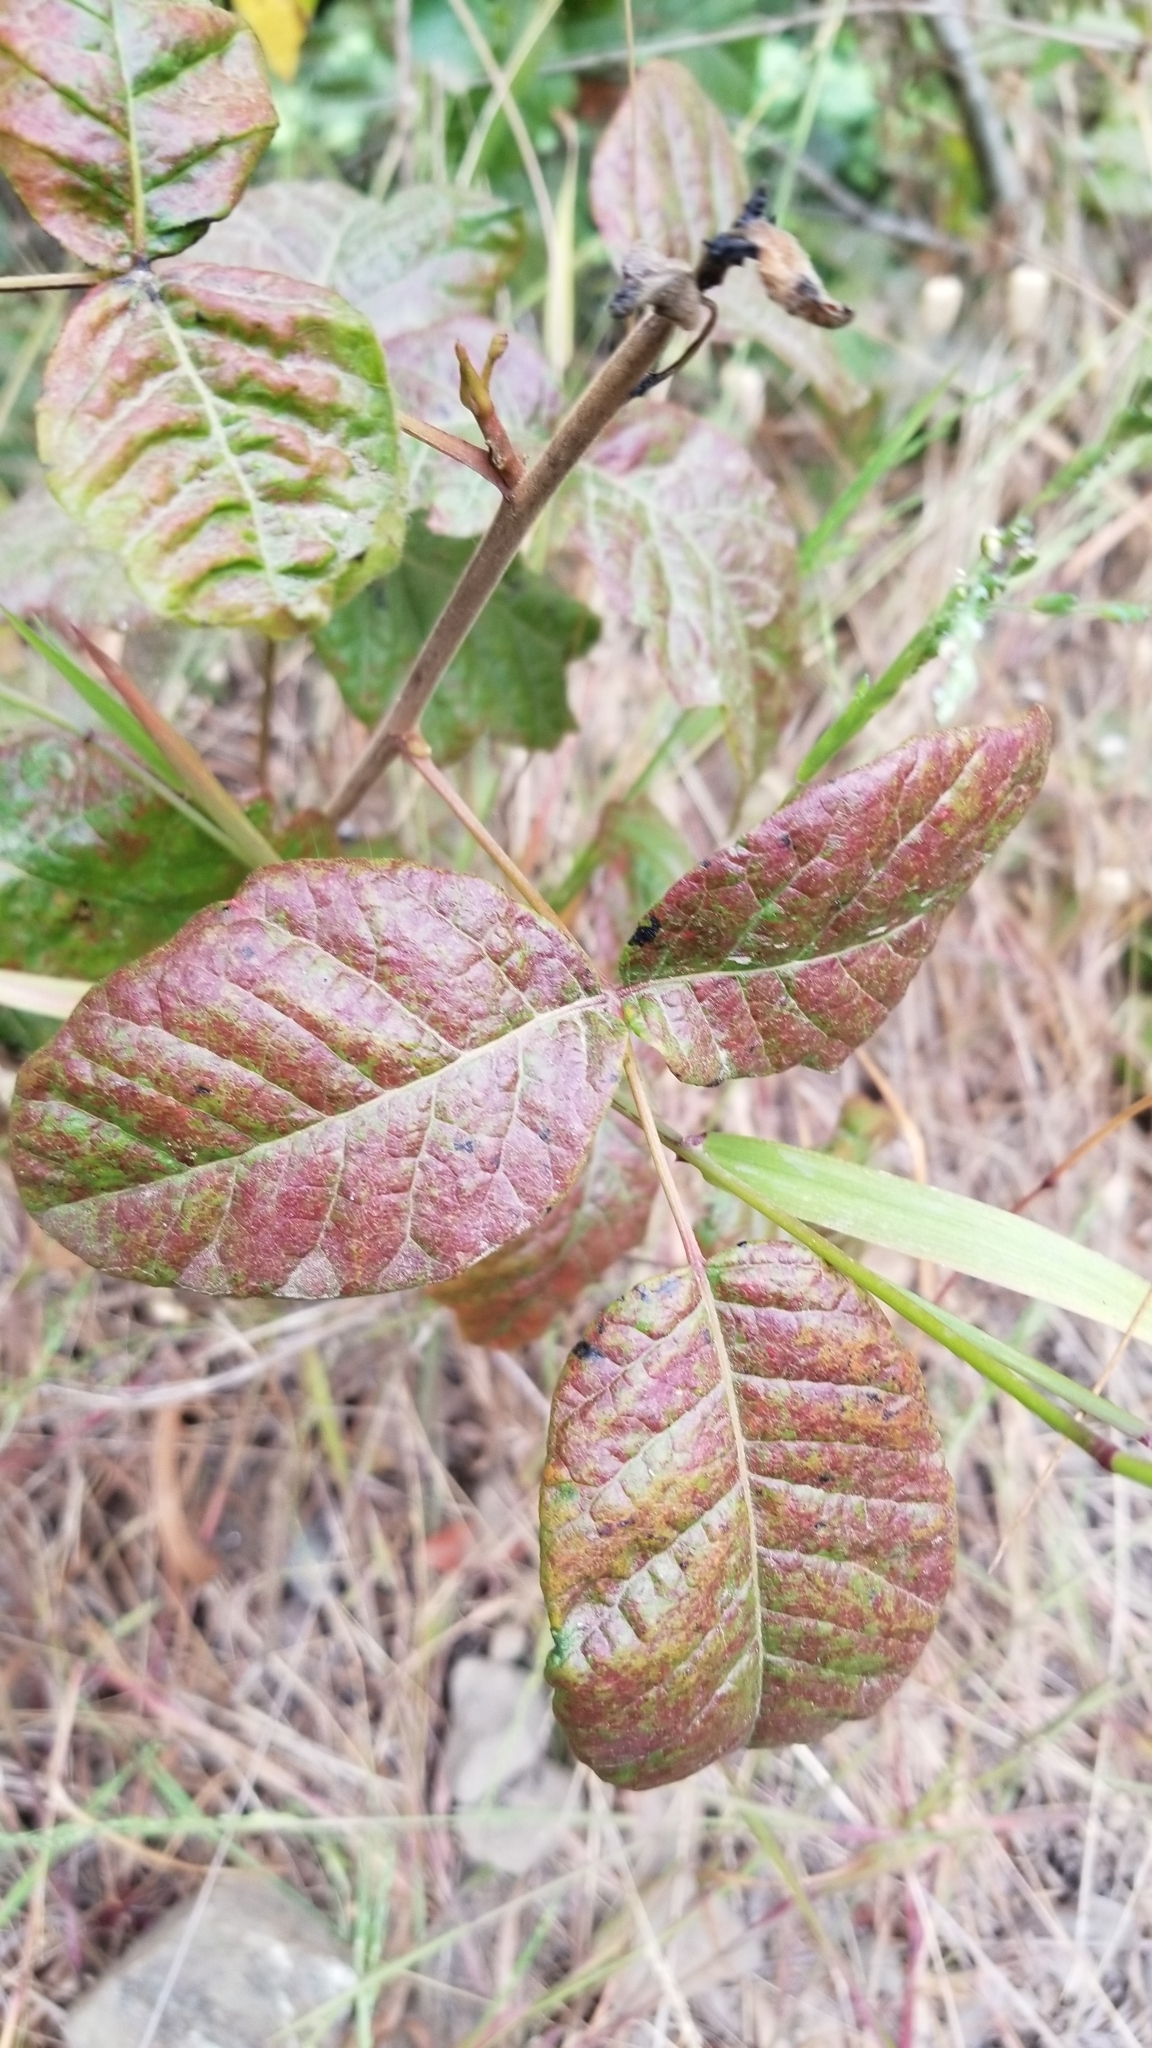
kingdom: Plantae
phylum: Tracheophyta
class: Magnoliopsida
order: Sapindales
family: Anacardiaceae
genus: Toxicodendron
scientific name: Toxicodendron diversilobum
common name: Pacific poison-oak
